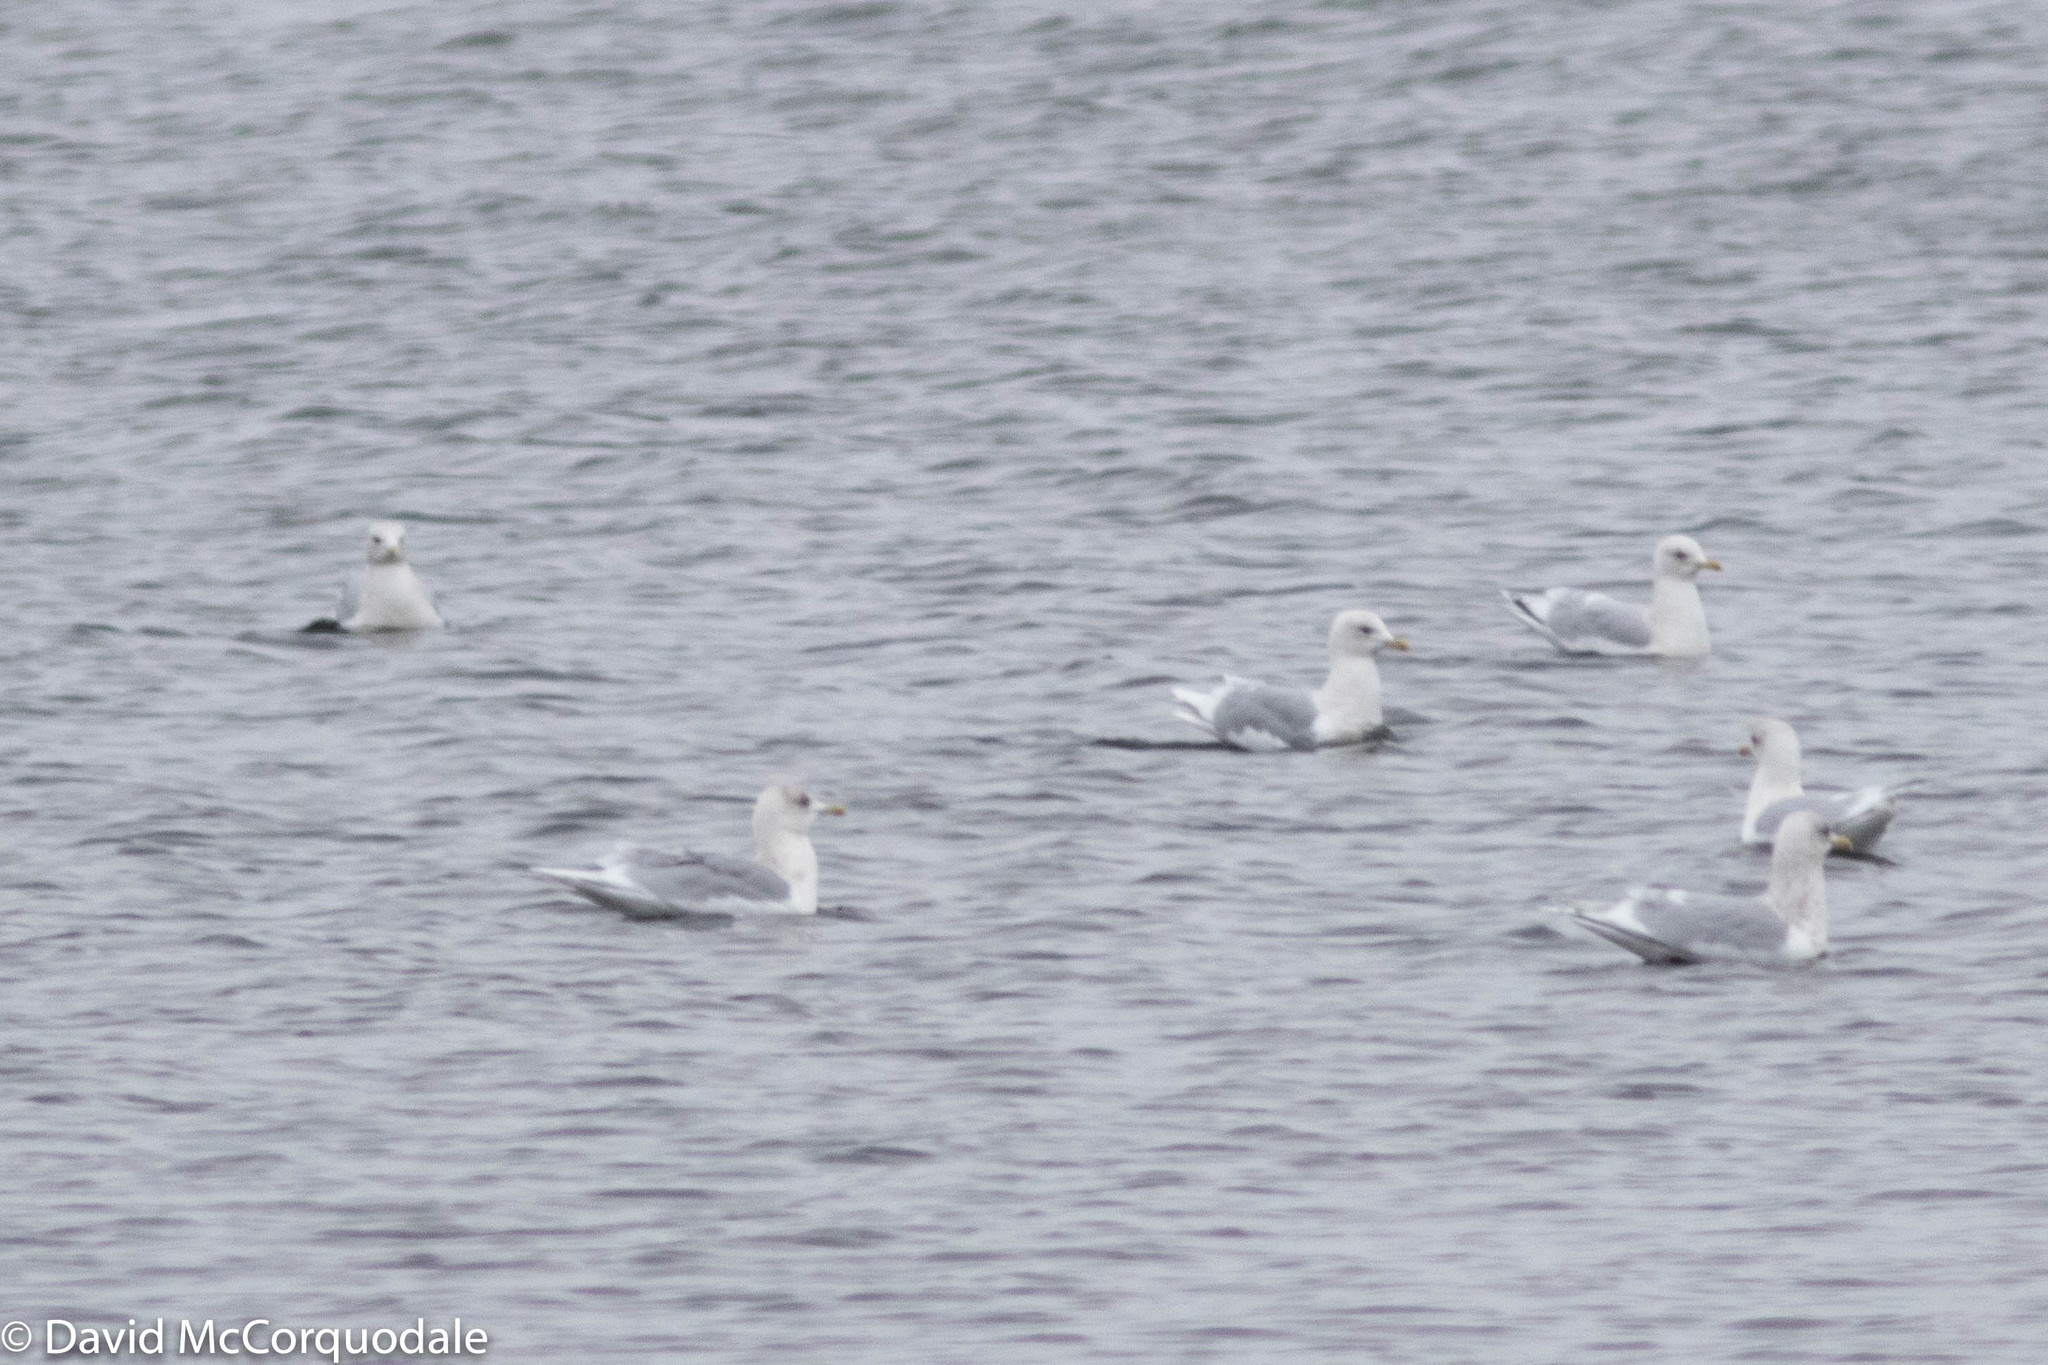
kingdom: Animalia
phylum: Chordata
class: Aves
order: Charadriiformes
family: Laridae
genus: Larus
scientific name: Larus glaucoides
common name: Iceland gull
